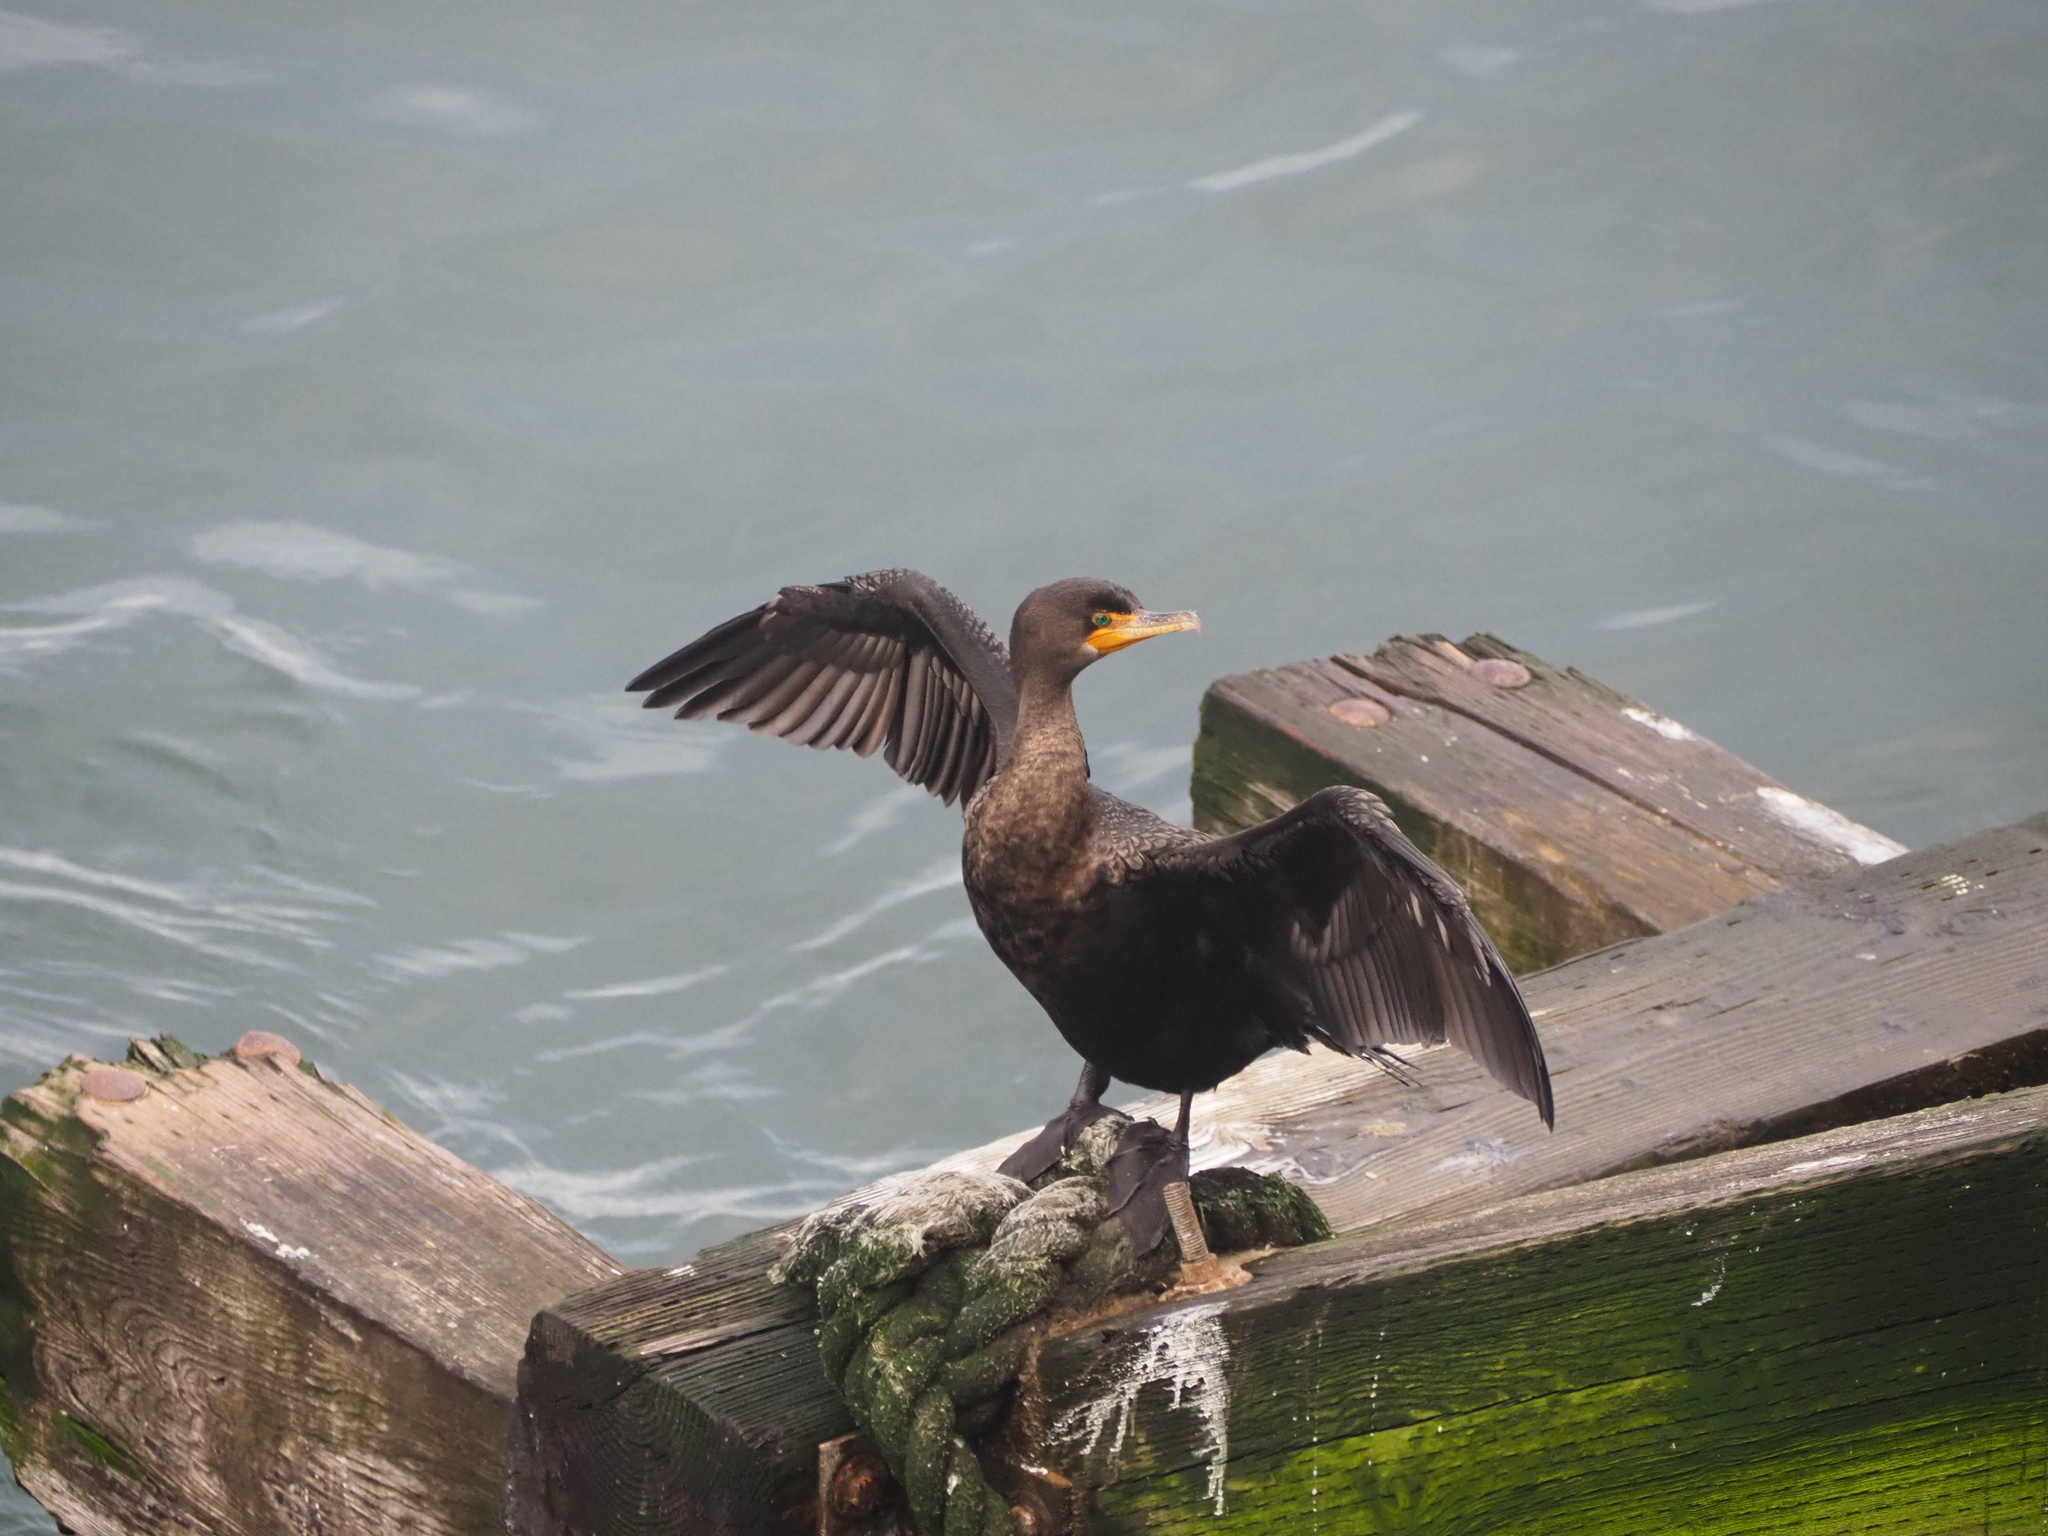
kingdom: Animalia
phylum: Chordata
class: Aves
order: Suliformes
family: Phalacrocoracidae
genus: Phalacrocorax
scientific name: Phalacrocorax auritus
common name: Double-crested cormorant
